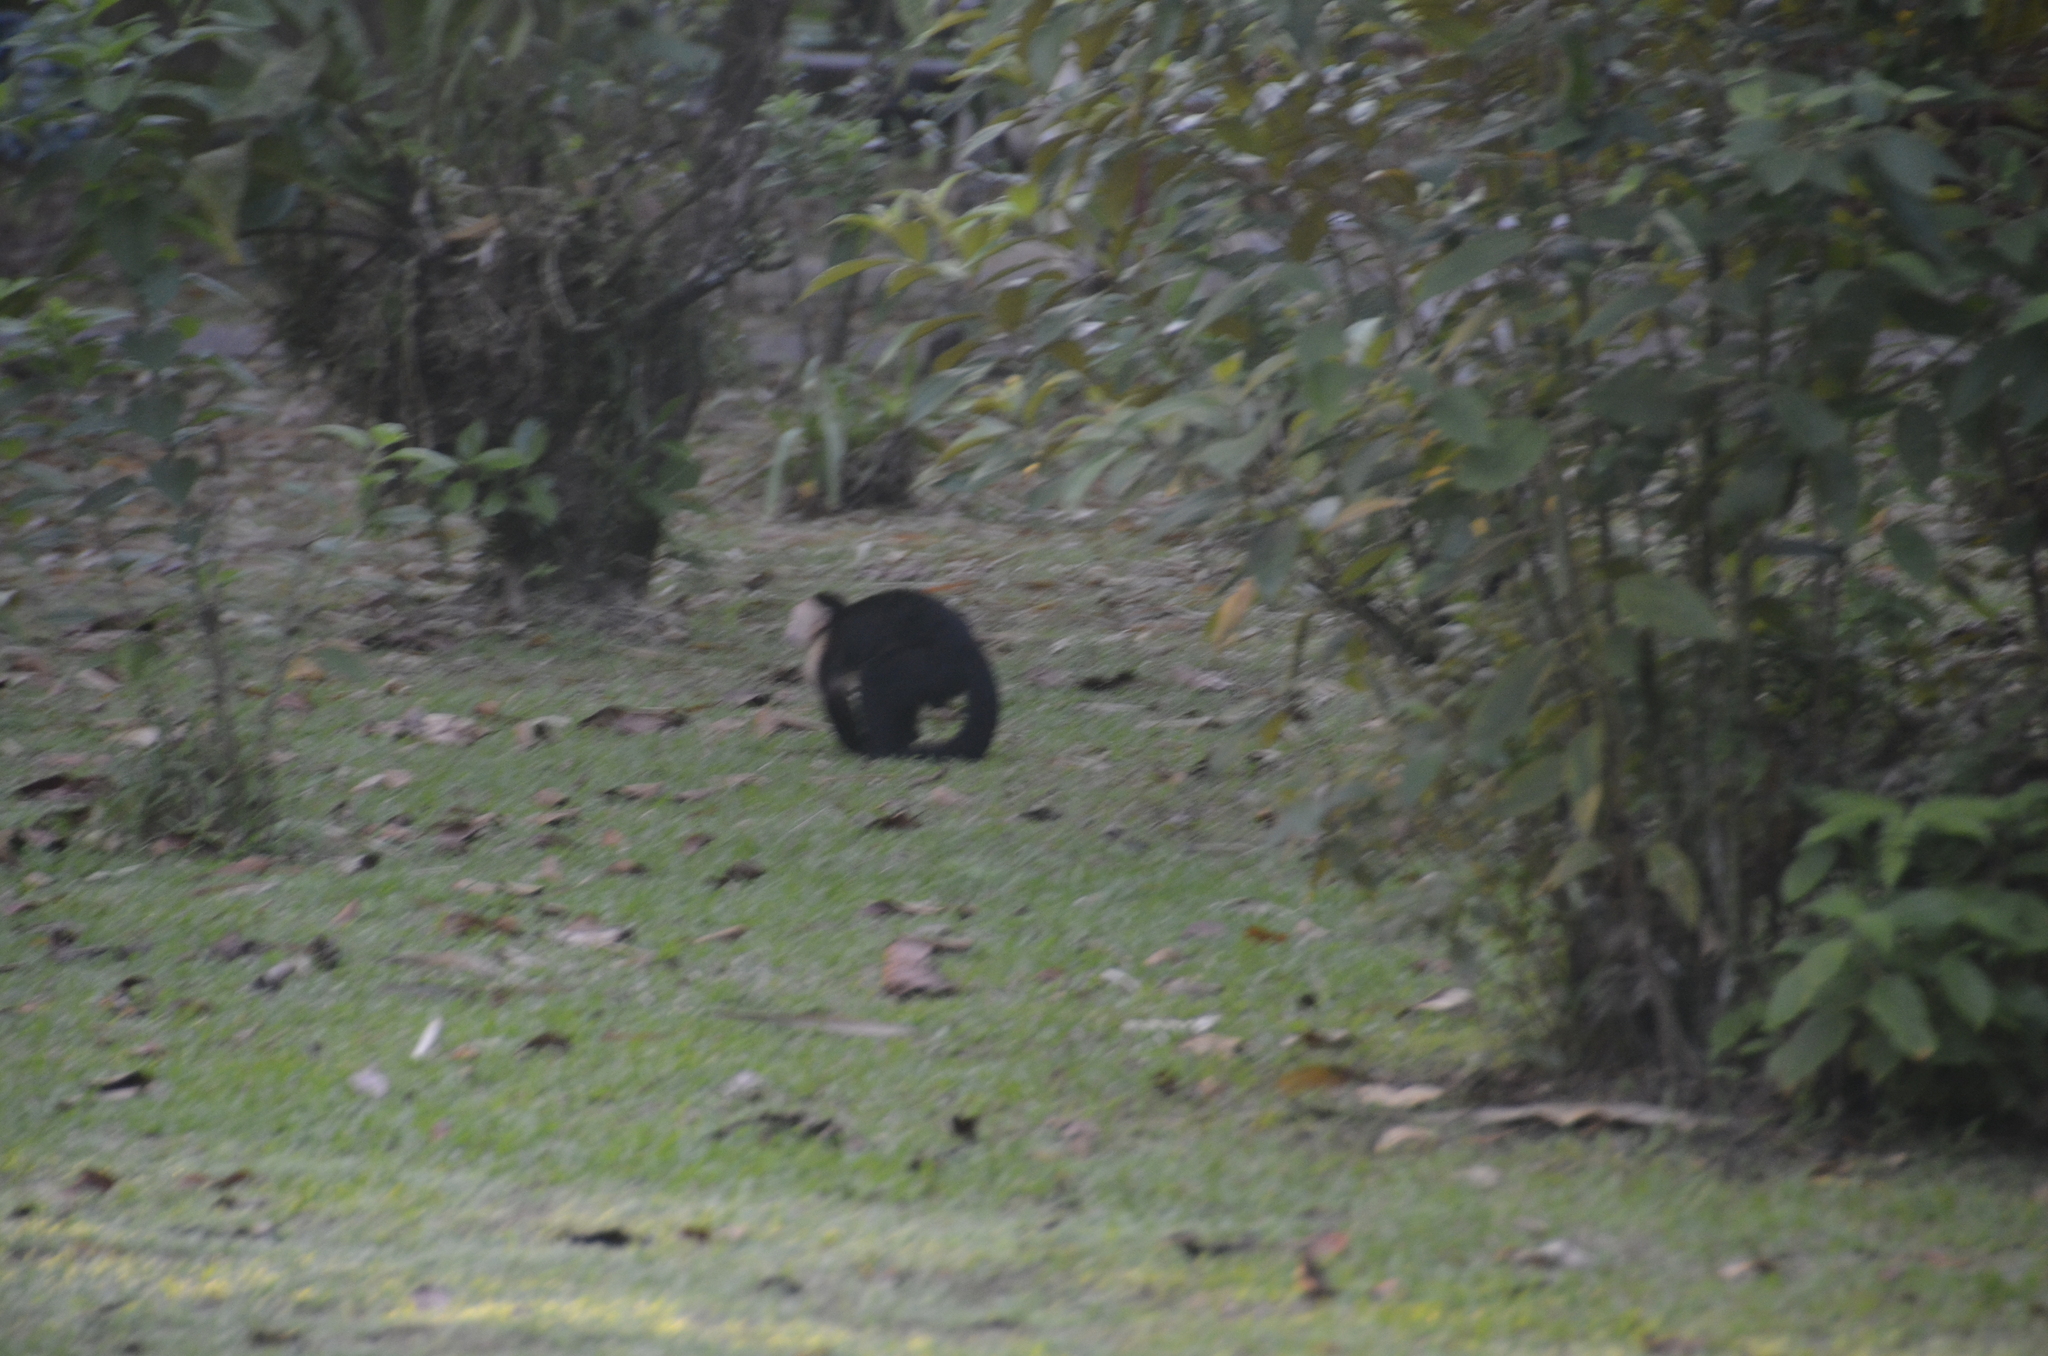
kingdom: Animalia
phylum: Chordata
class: Mammalia
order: Primates
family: Cebidae
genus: Cebus
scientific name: Cebus imitator
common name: Panamanian white-faced capuchin
